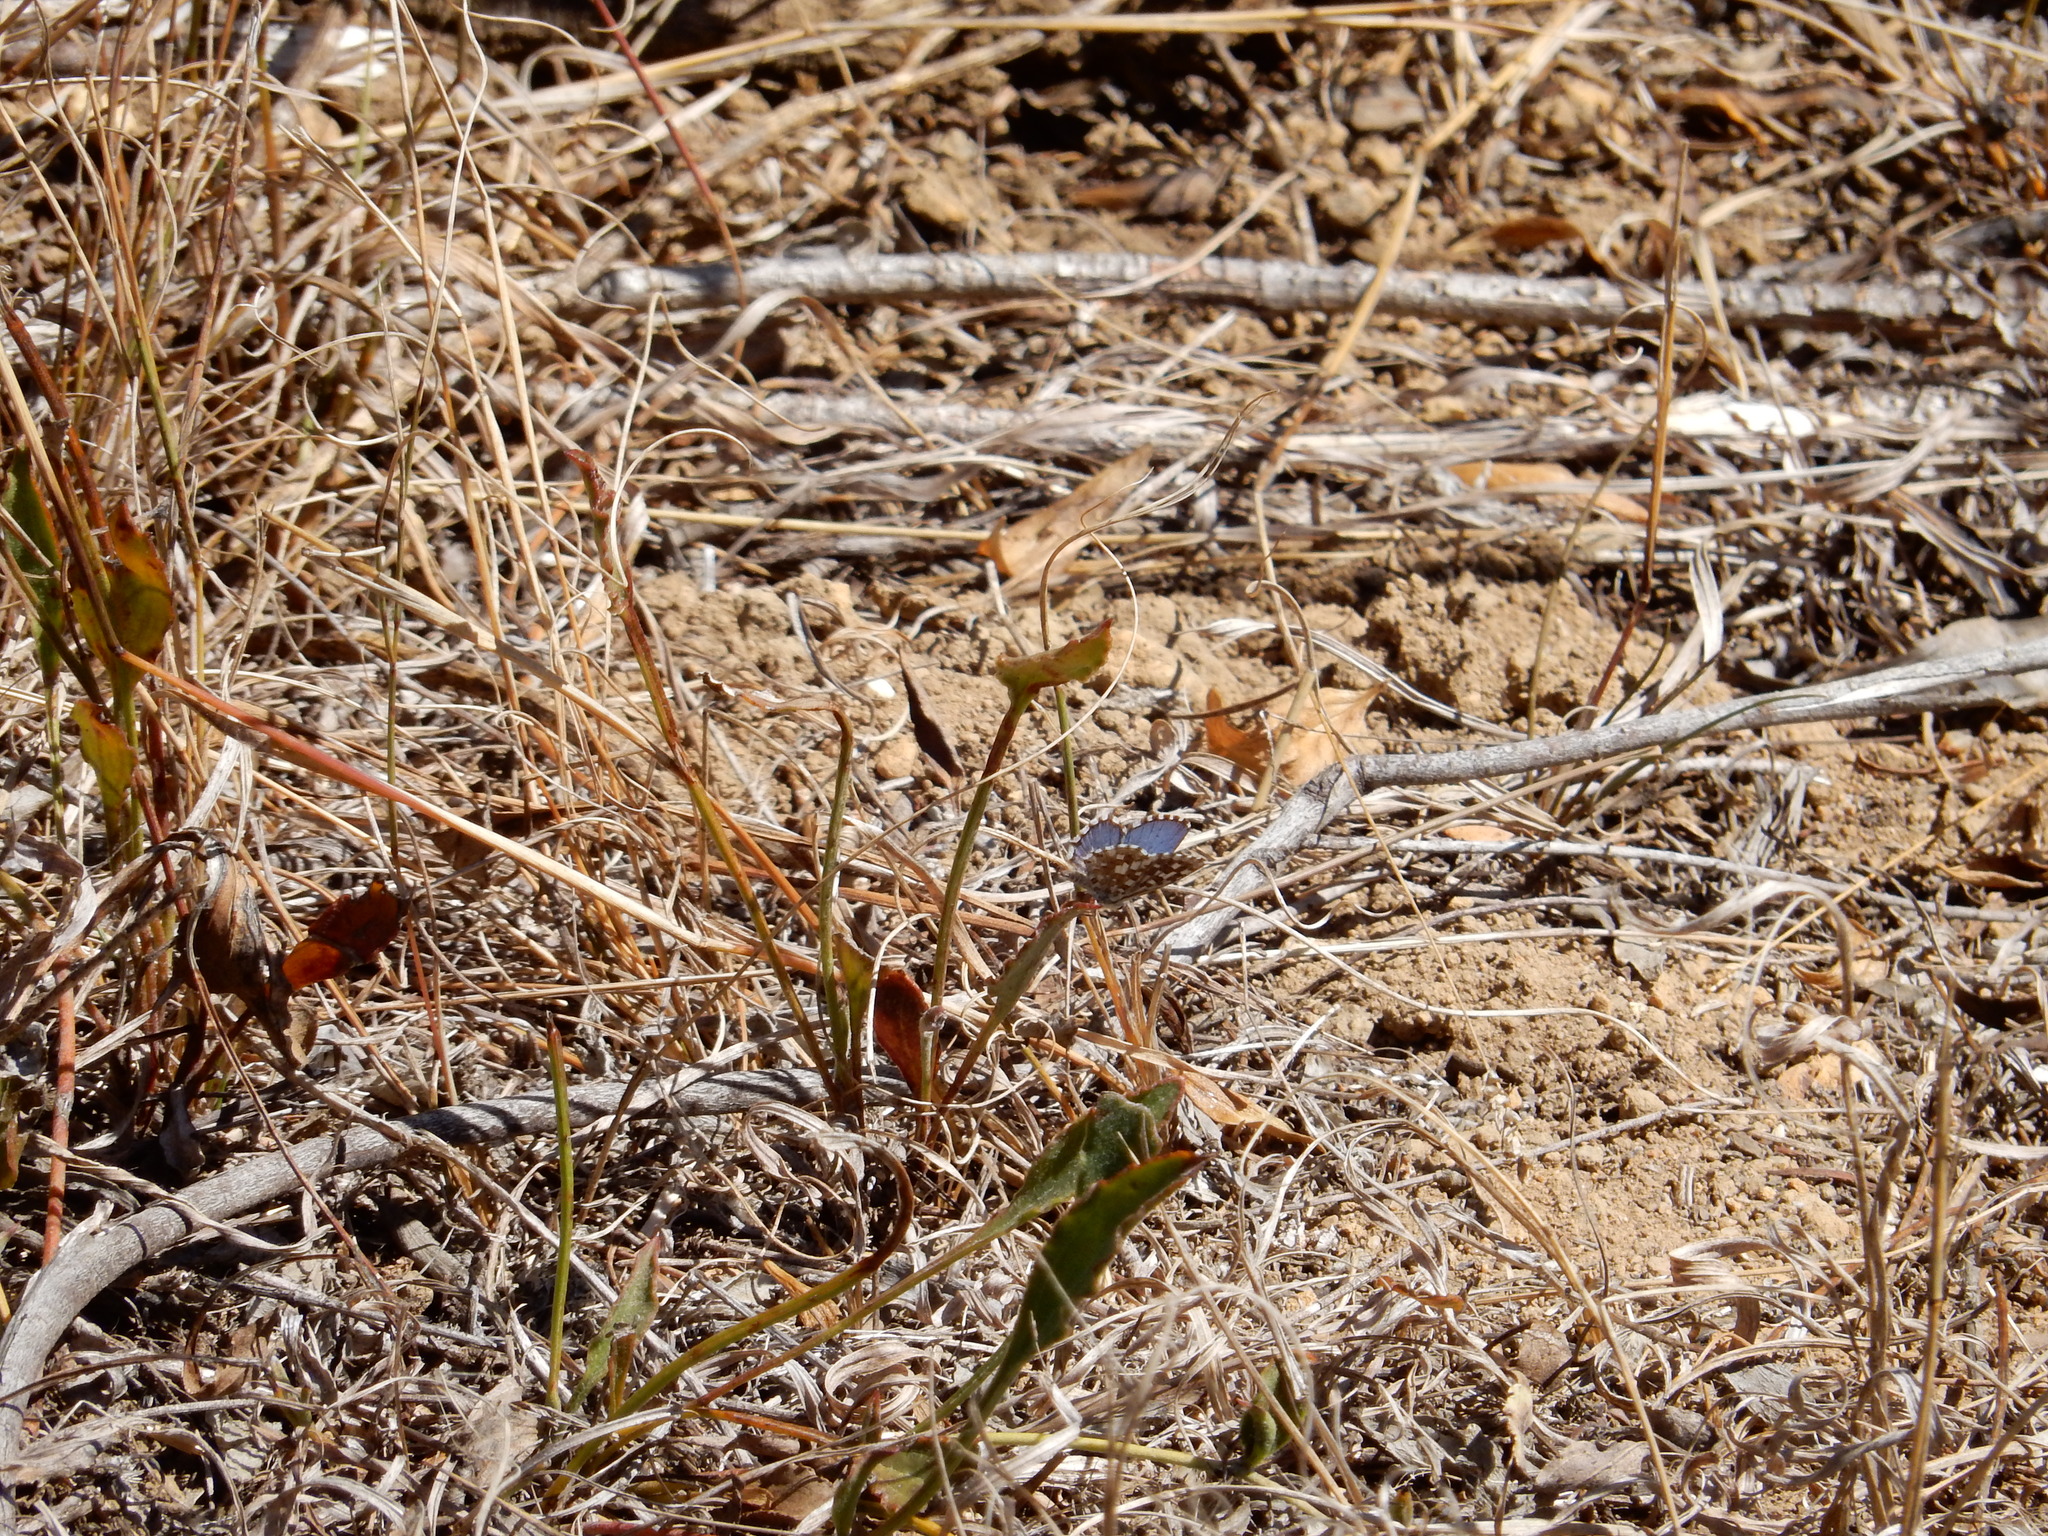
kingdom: Animalia
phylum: Arthropoda
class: Insecta
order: Lepidoptera
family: Lycaenidae
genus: Tarucus
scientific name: Tarucus thespis
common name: Vivid dotted blue
